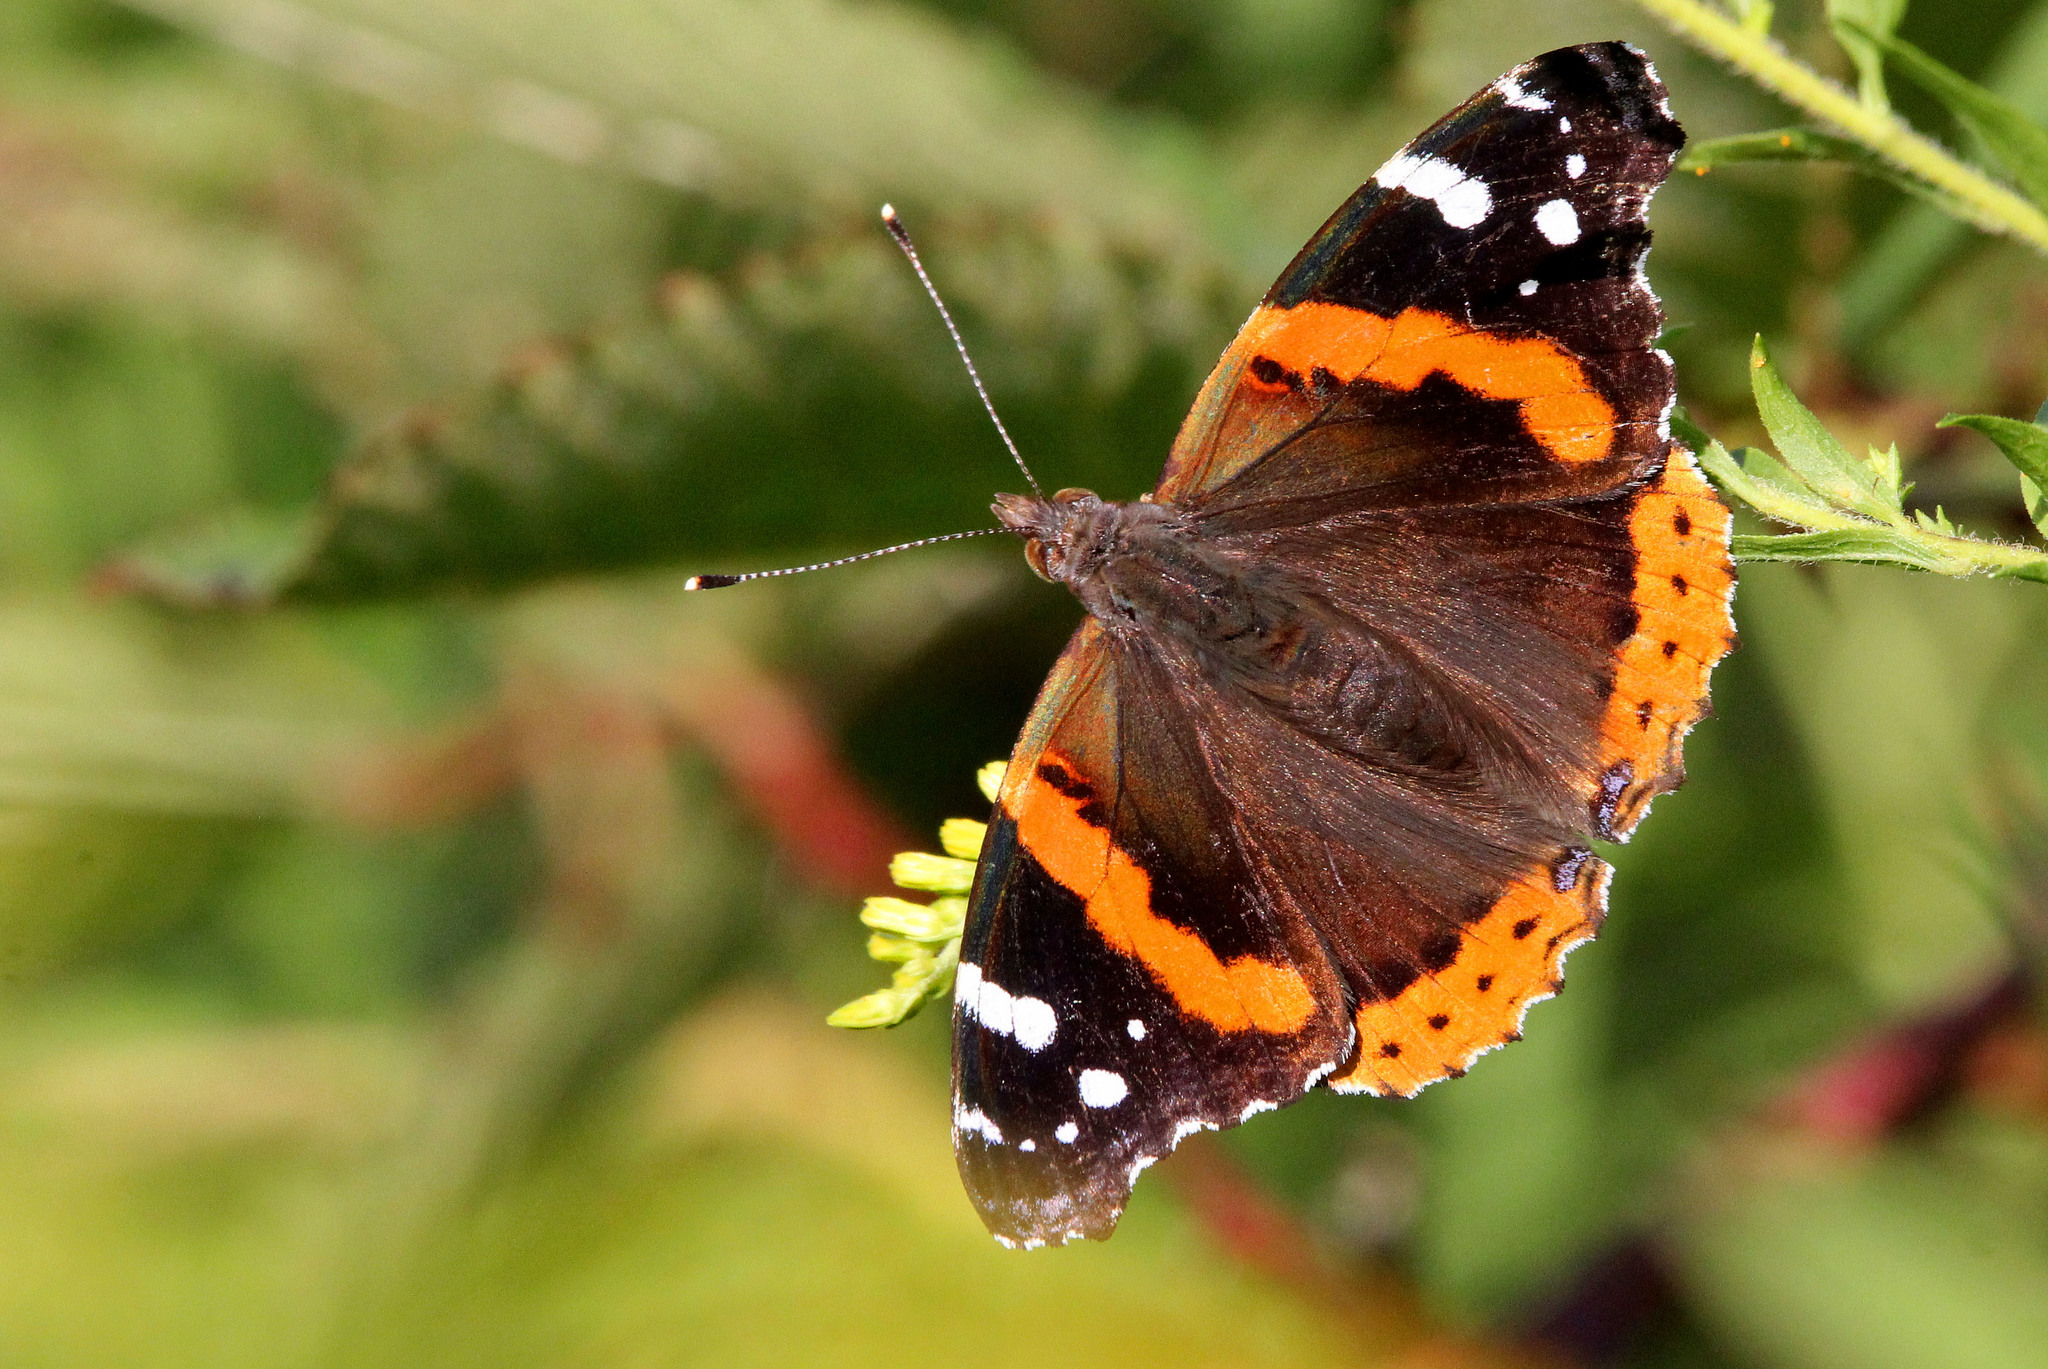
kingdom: Animalia
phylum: Arthropoda
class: Insecta
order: Lepidoptera
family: Nymphalidae
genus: Vanessa
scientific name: Vanessa atalanta
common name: Red admiral
